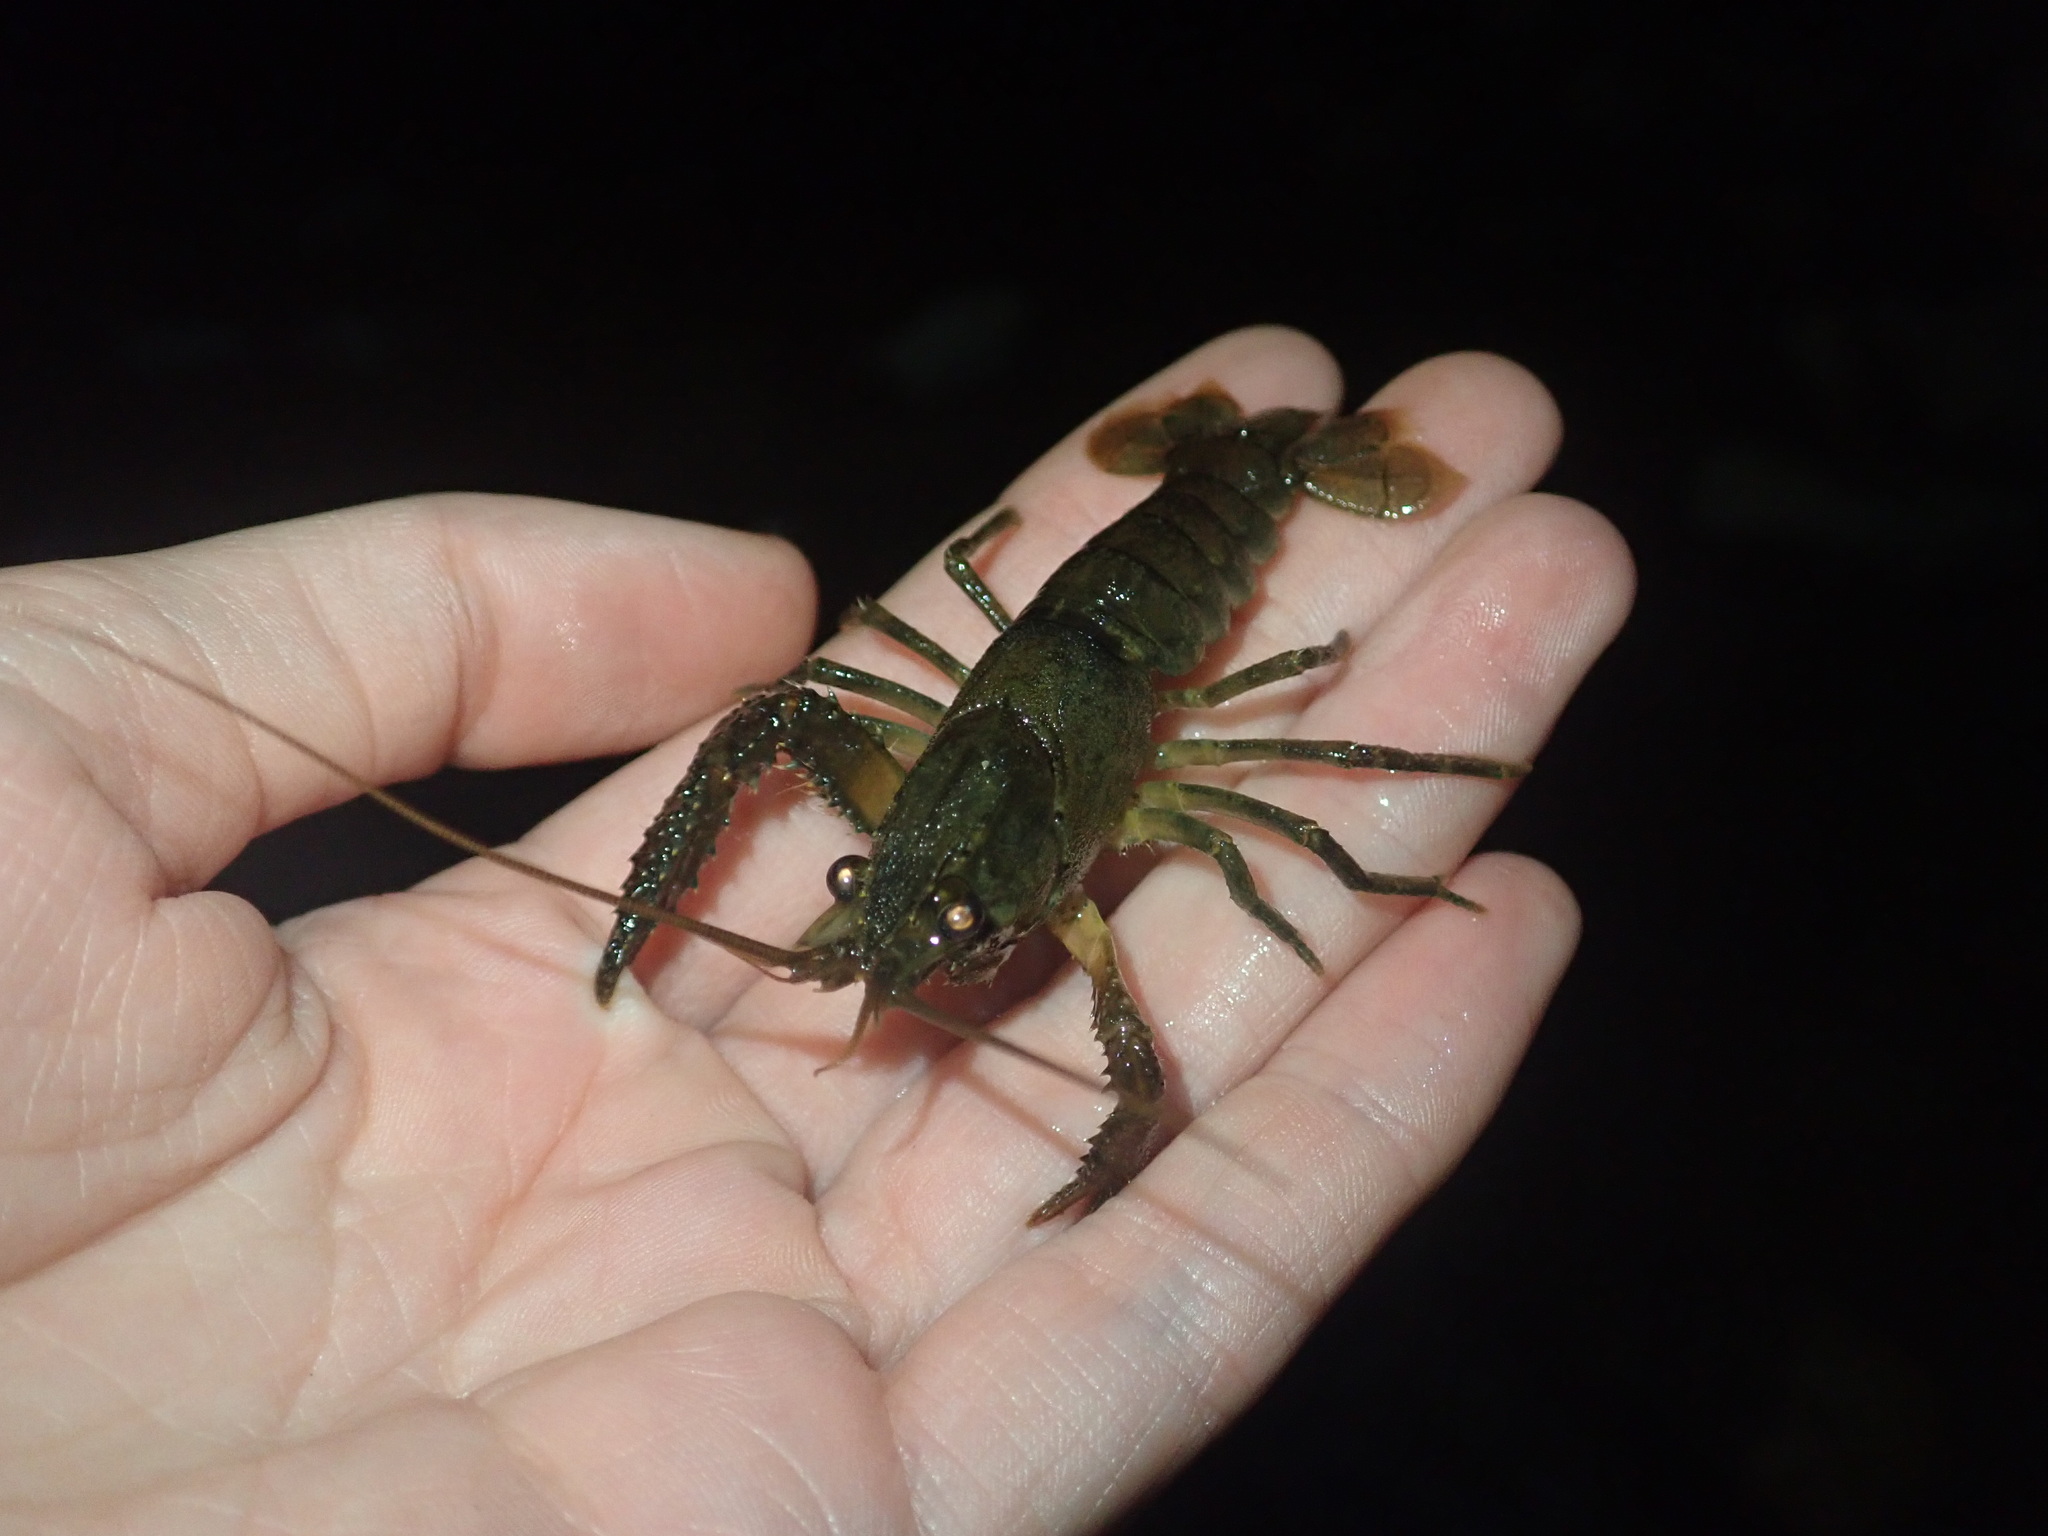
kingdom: Animalia
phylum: Arthropoda
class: Malacostraca
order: Decapoda
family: Parastacidae
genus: Paranephrops
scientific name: Paranephrops planifrons
